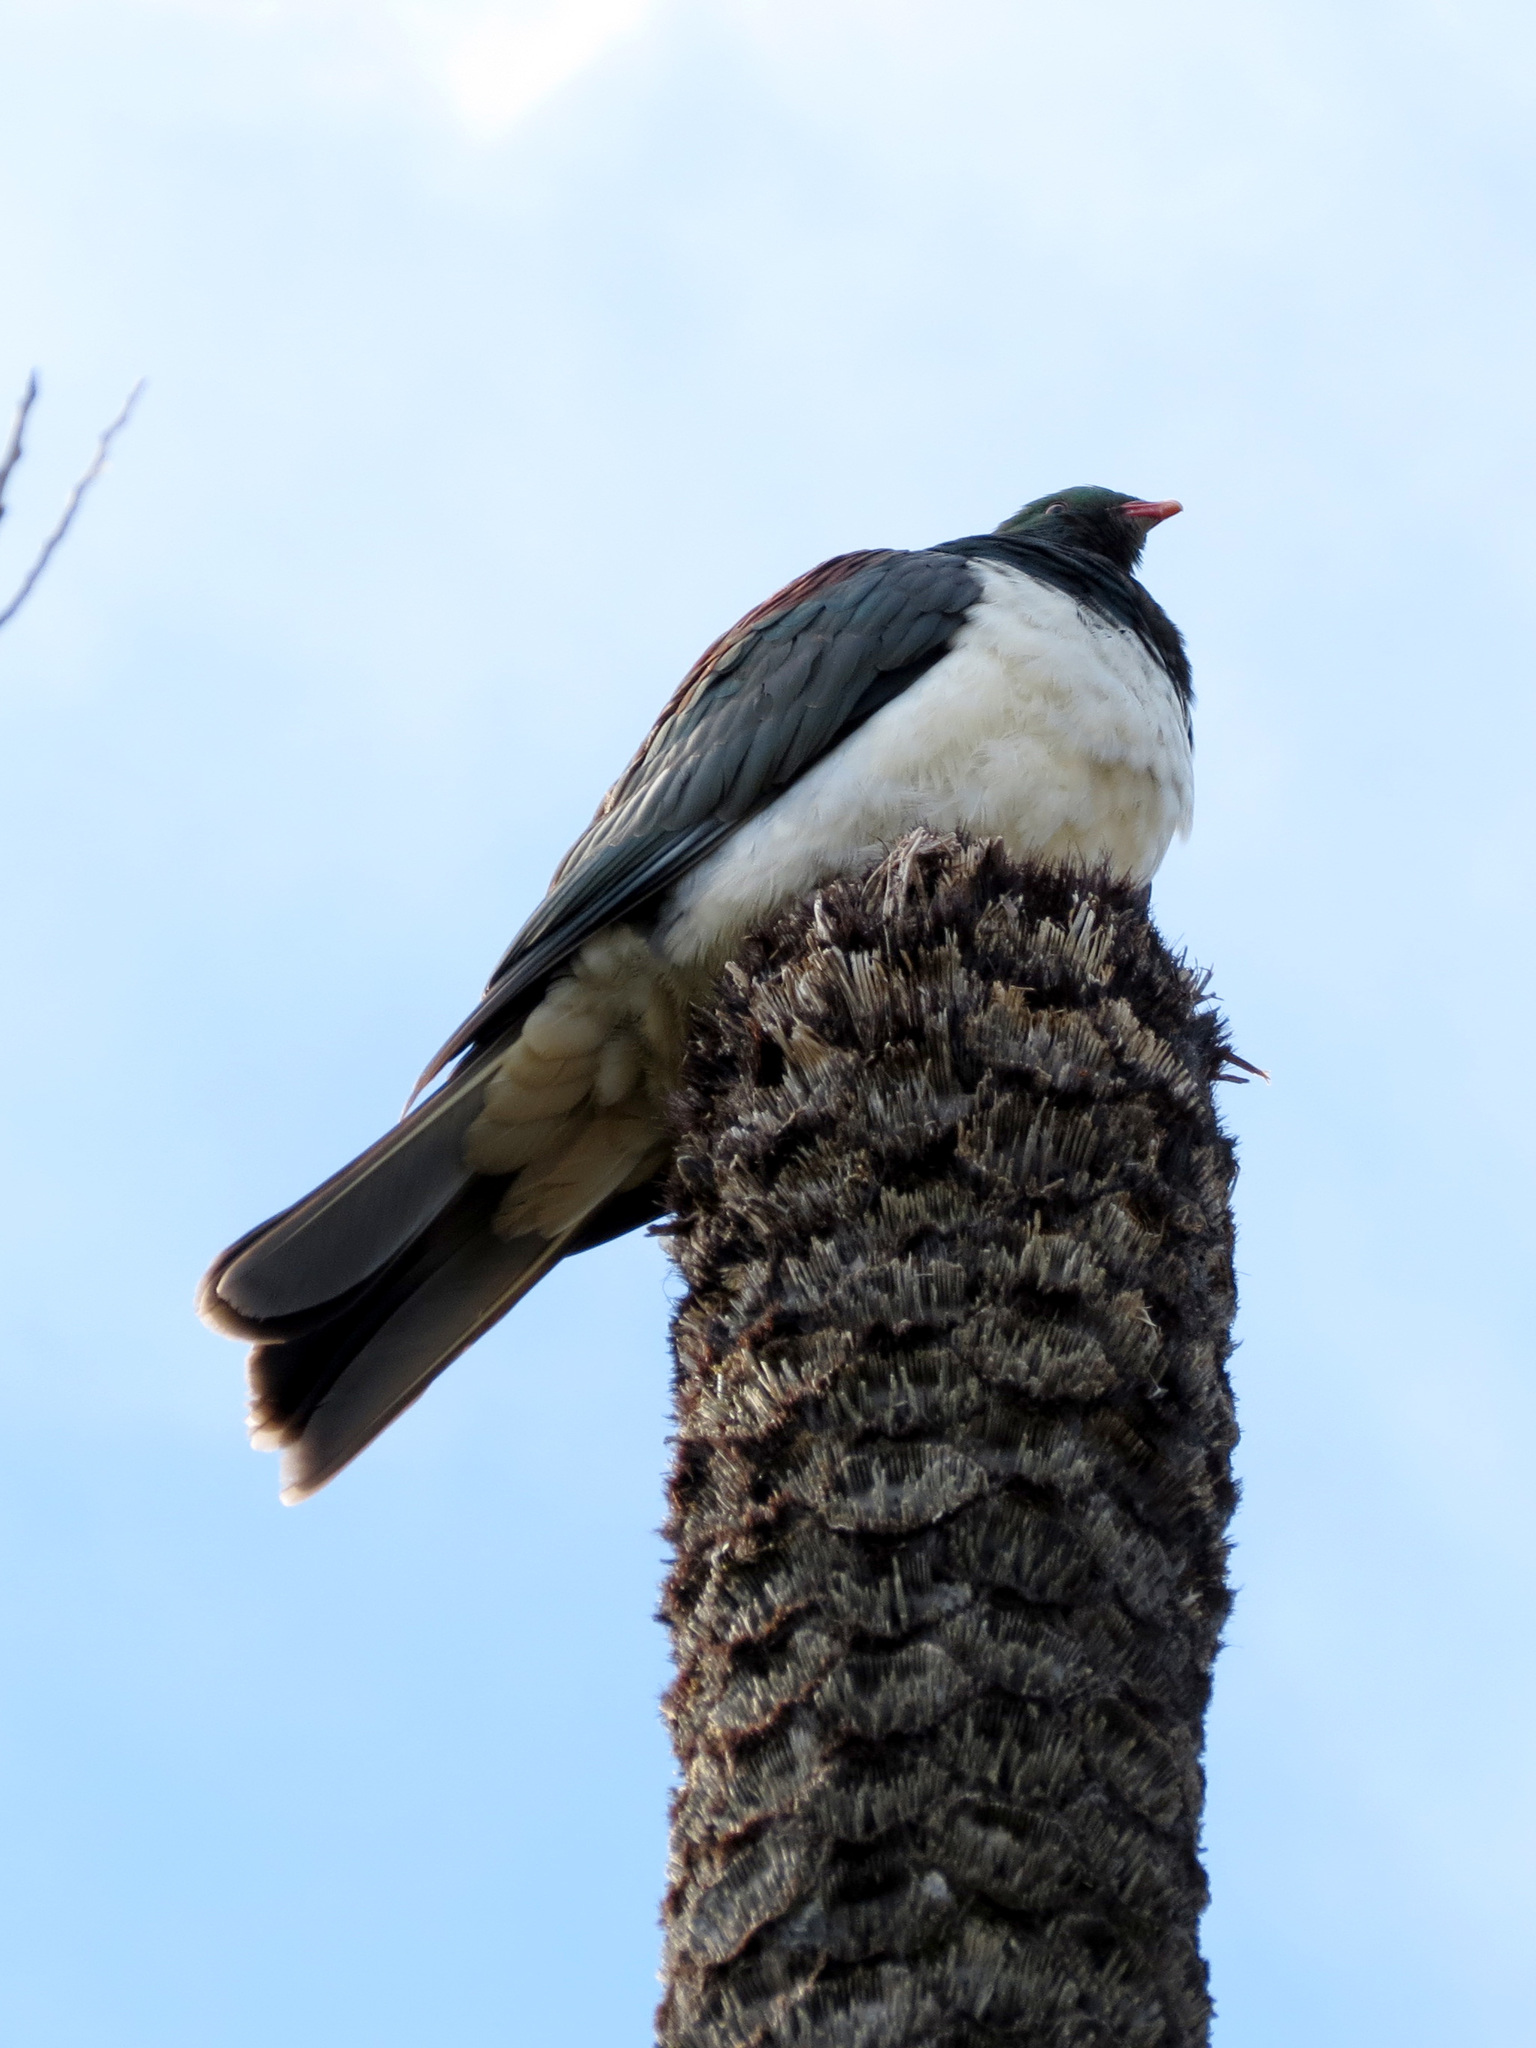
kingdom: Animalia
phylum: Chordata
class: Aves
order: Columbiformes
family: Columbidae
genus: Hemiphaga
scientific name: Hemiphaga novaeseelandiae
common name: New zealand pigeon
